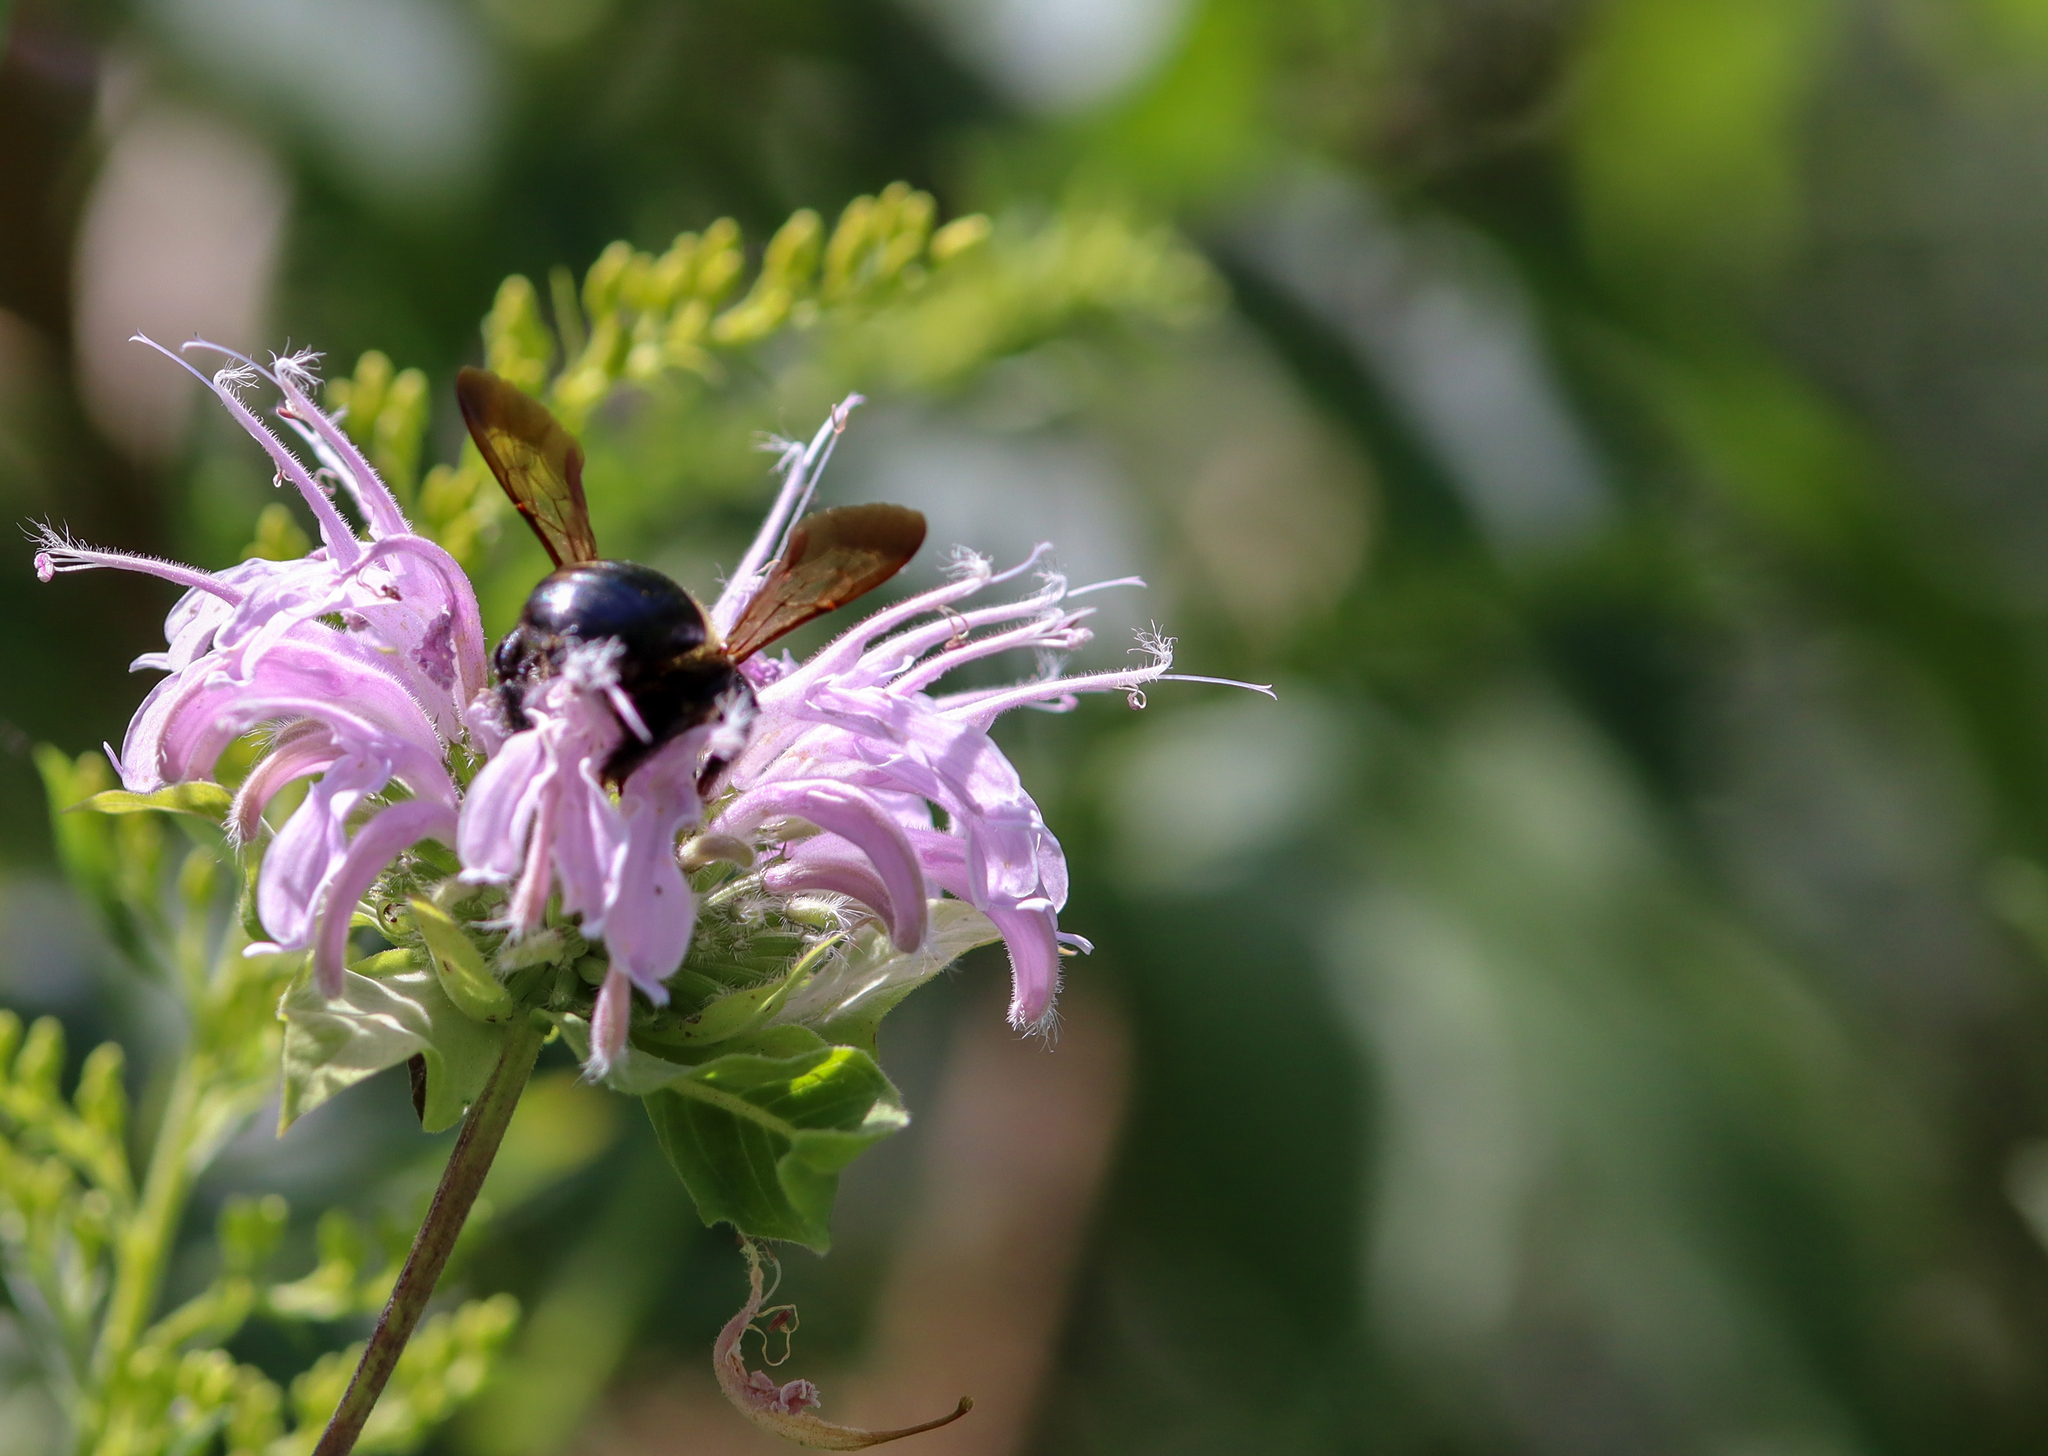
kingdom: Animalia
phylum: Arthropoda
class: Insecta
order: Hymenoptera
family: Apidae
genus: Xylocopa
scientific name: Xylocopa virginica
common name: Carpenter bee
